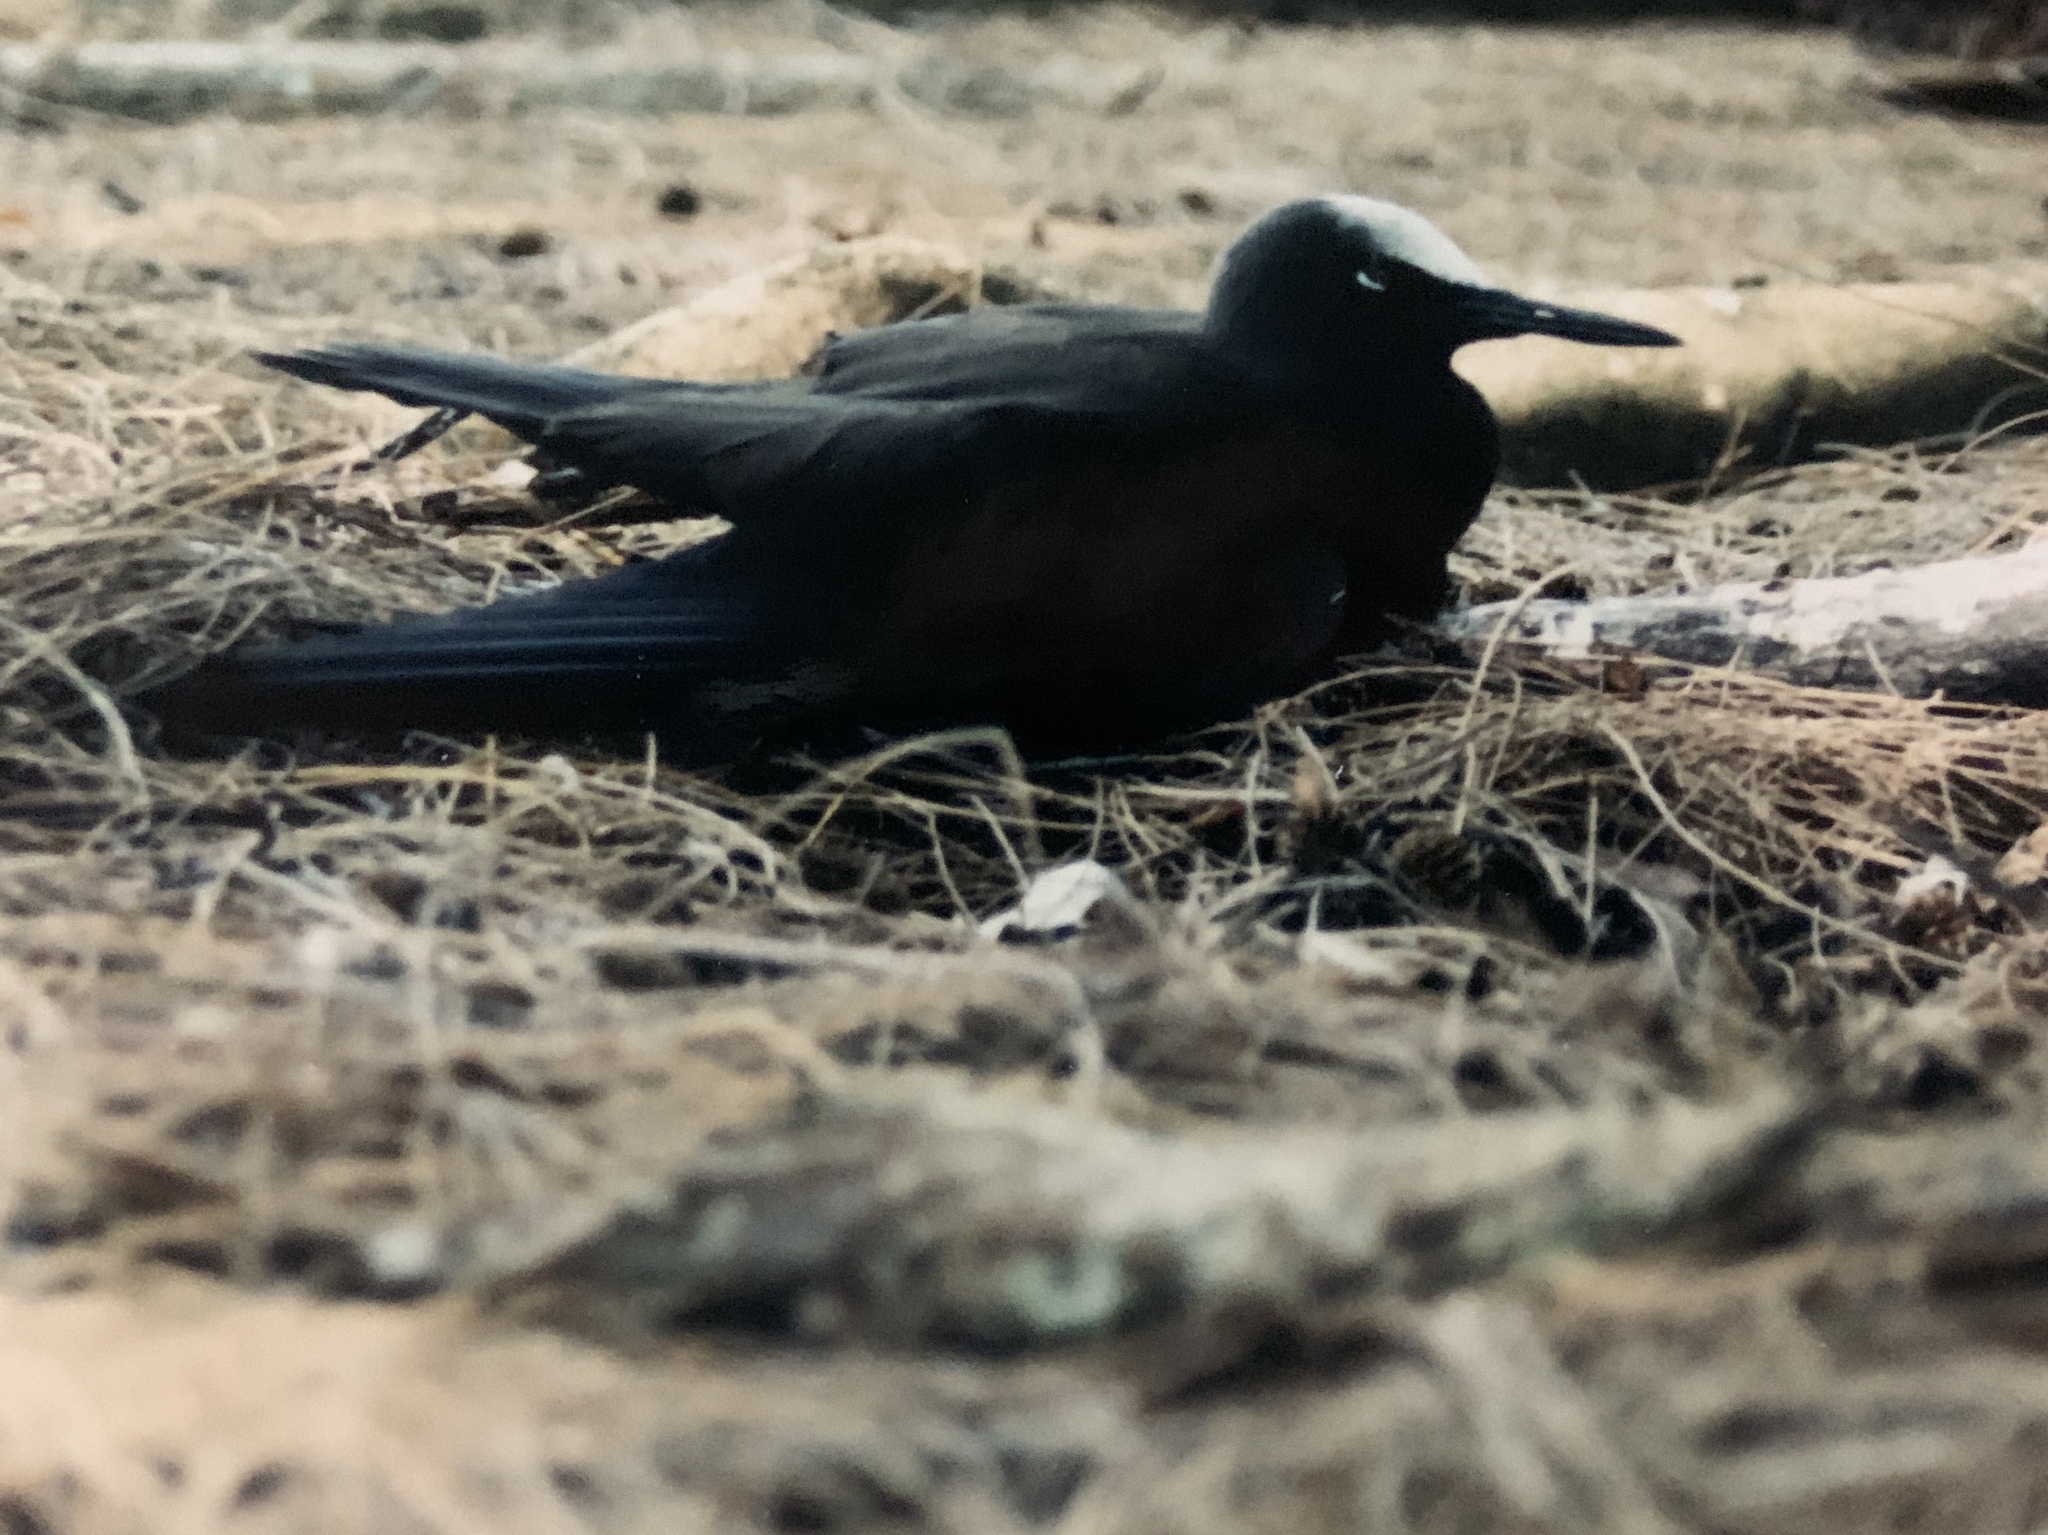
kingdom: Animalia
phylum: Chordata
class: Aves
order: Charadriiformes
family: Laridae
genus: Anous
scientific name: Anous minutus
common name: Black noddy
